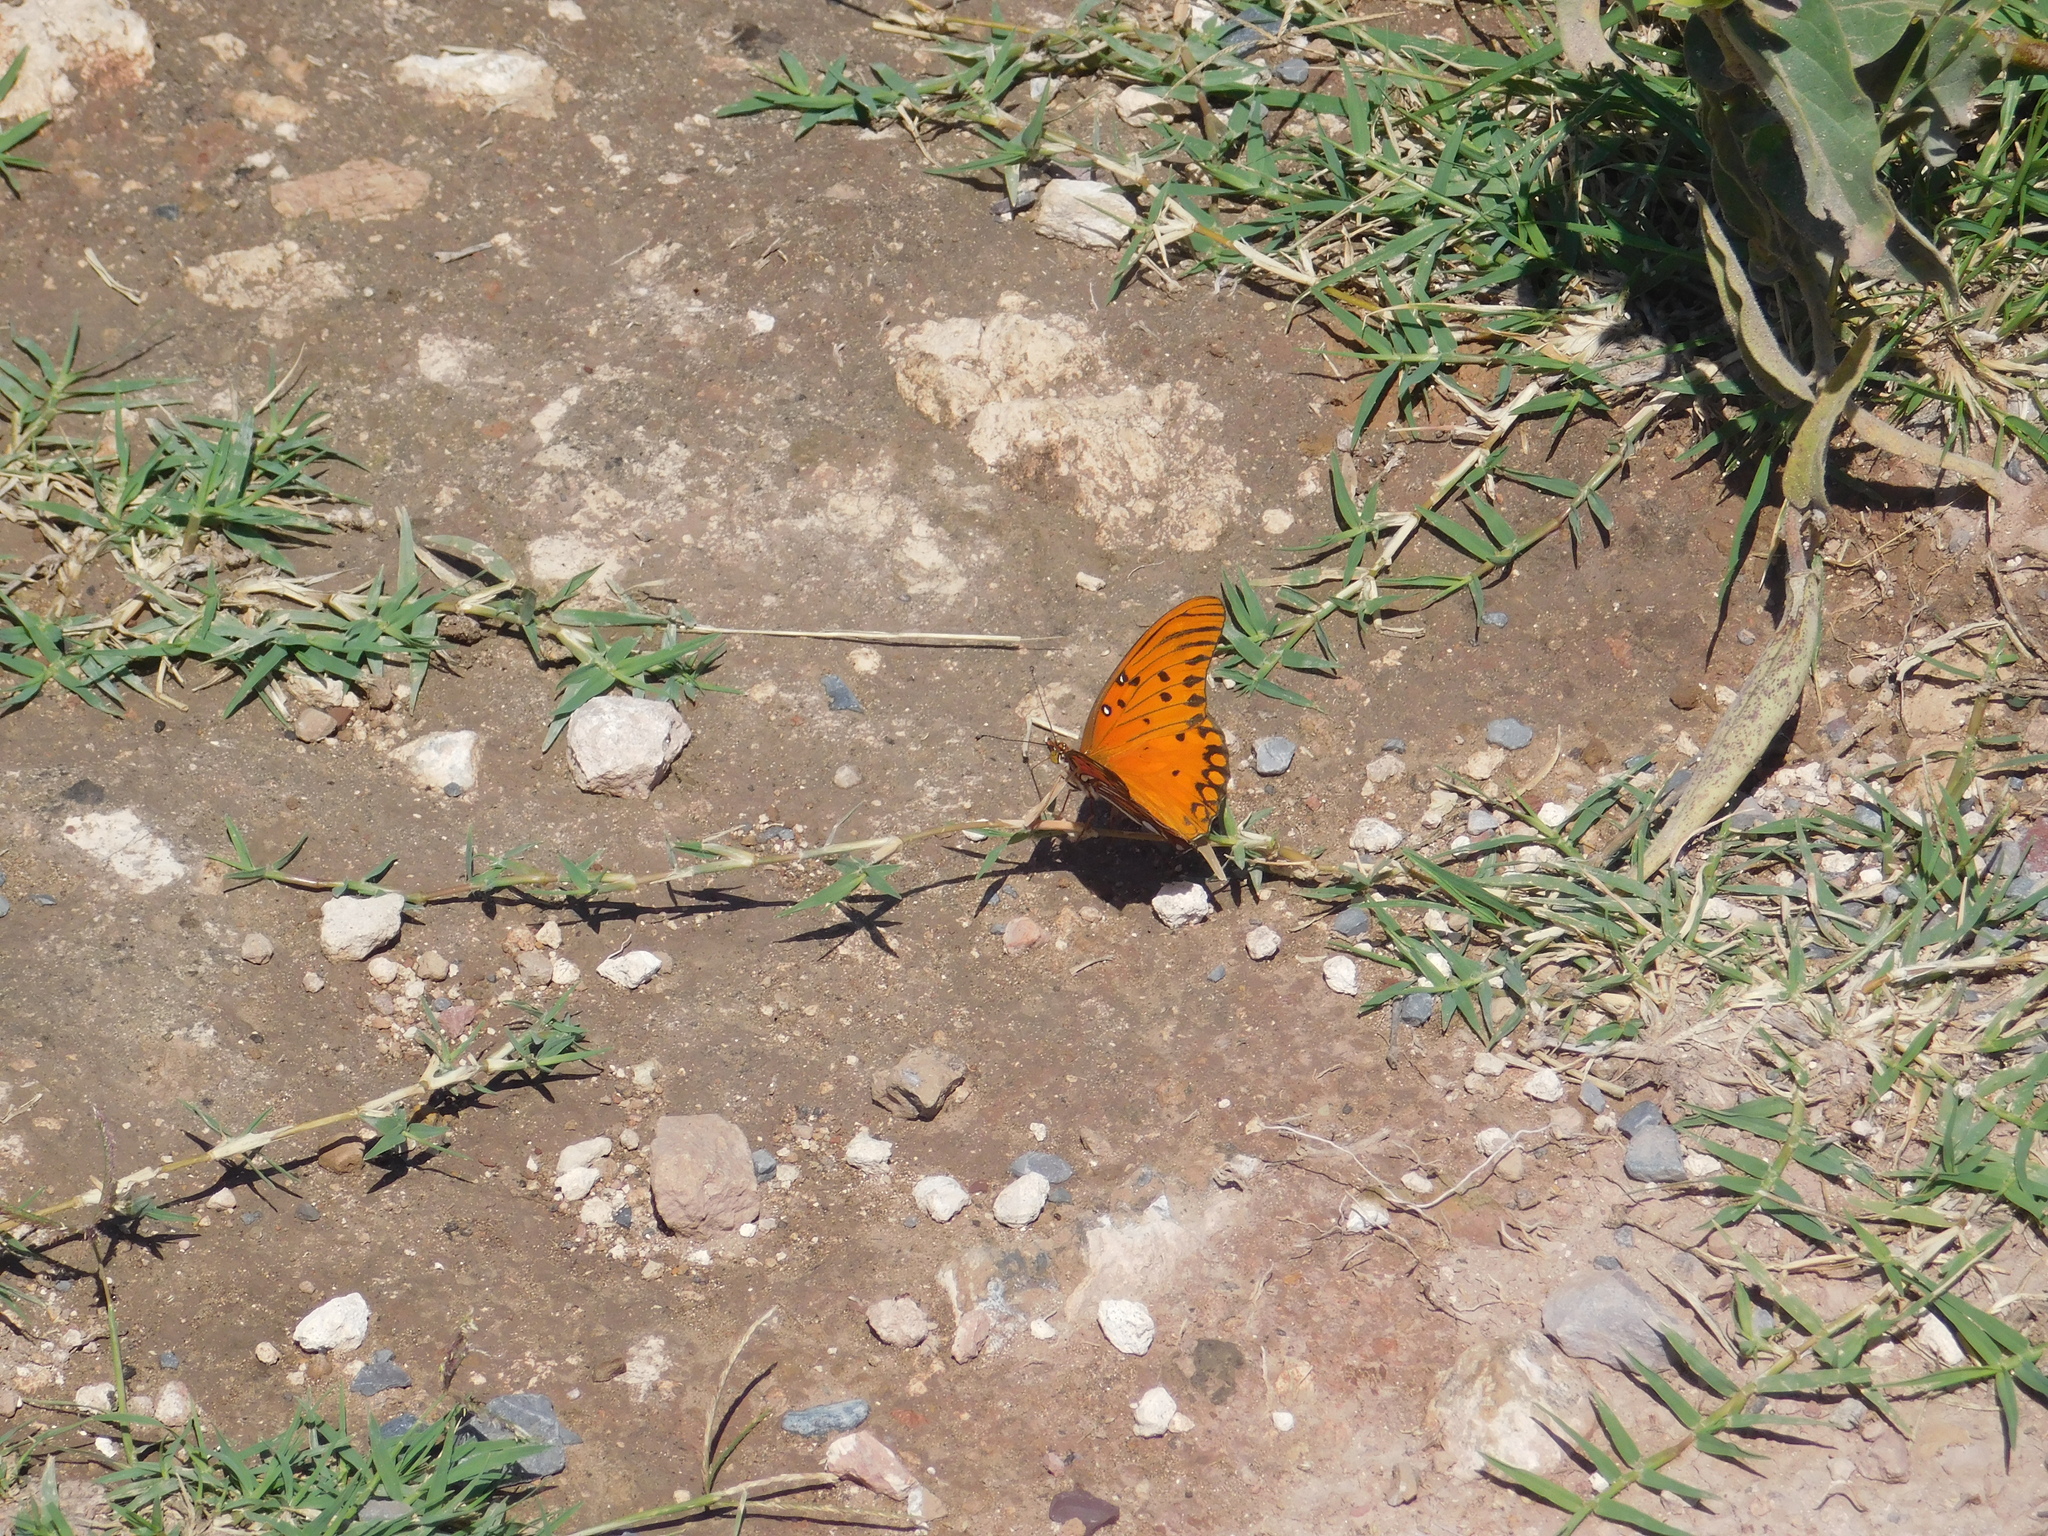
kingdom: Animalia
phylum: Arthropoda
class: Insecta
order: Lepidoptera
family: Nymphalidae
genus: Dione
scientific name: Dione vanillae
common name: Gulf fritillary
